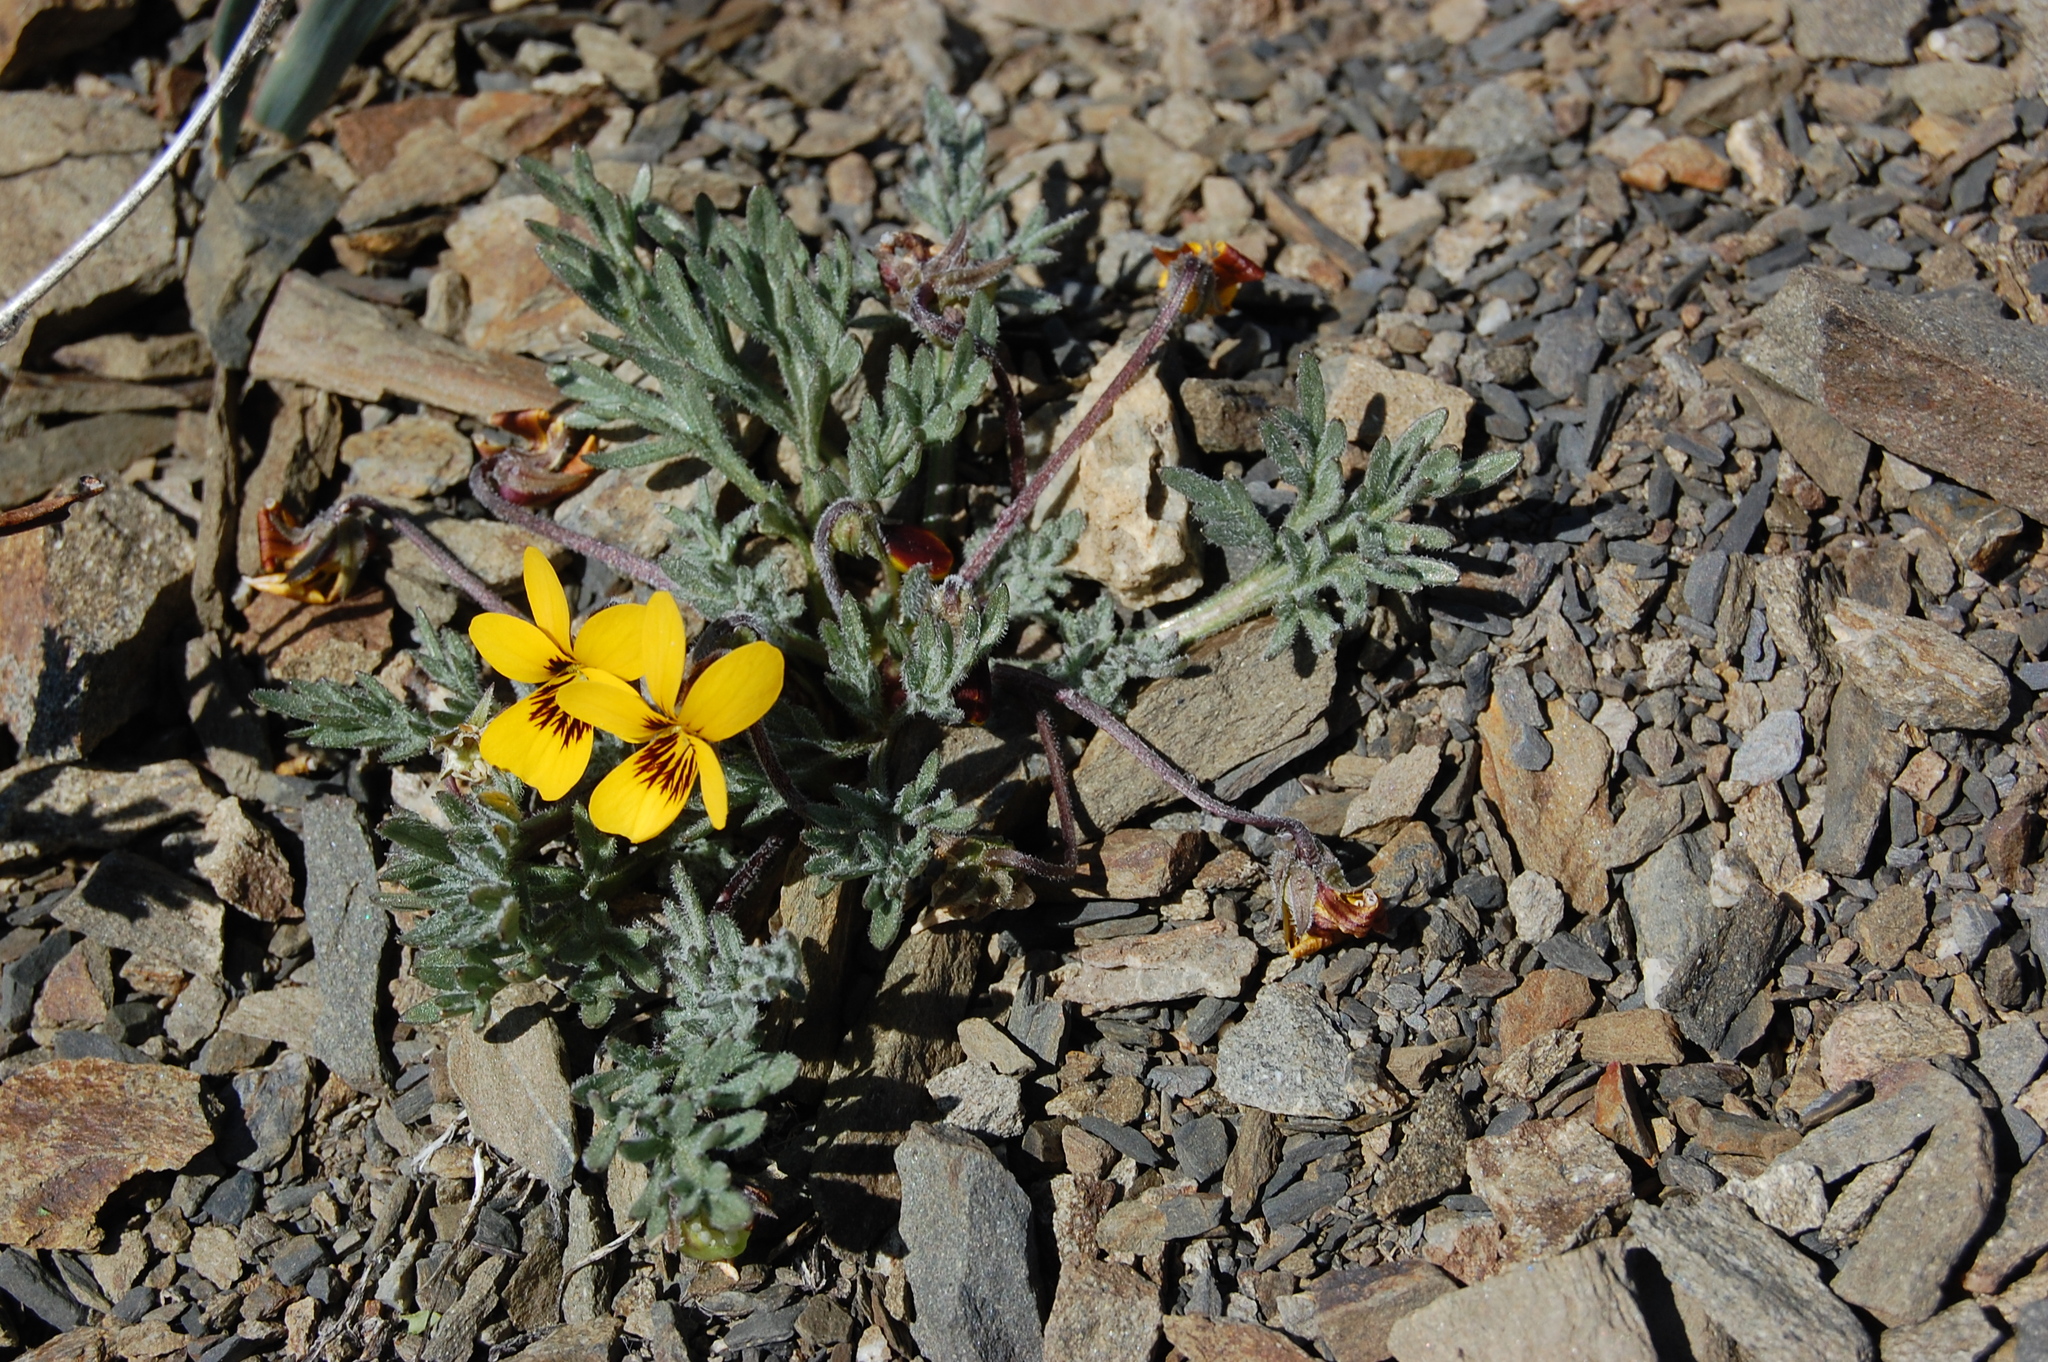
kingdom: Plantae
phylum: Tracheophyta
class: Magnoliopsida
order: Malpighiales
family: Violaceae
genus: Viola
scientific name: Viola douglasii
